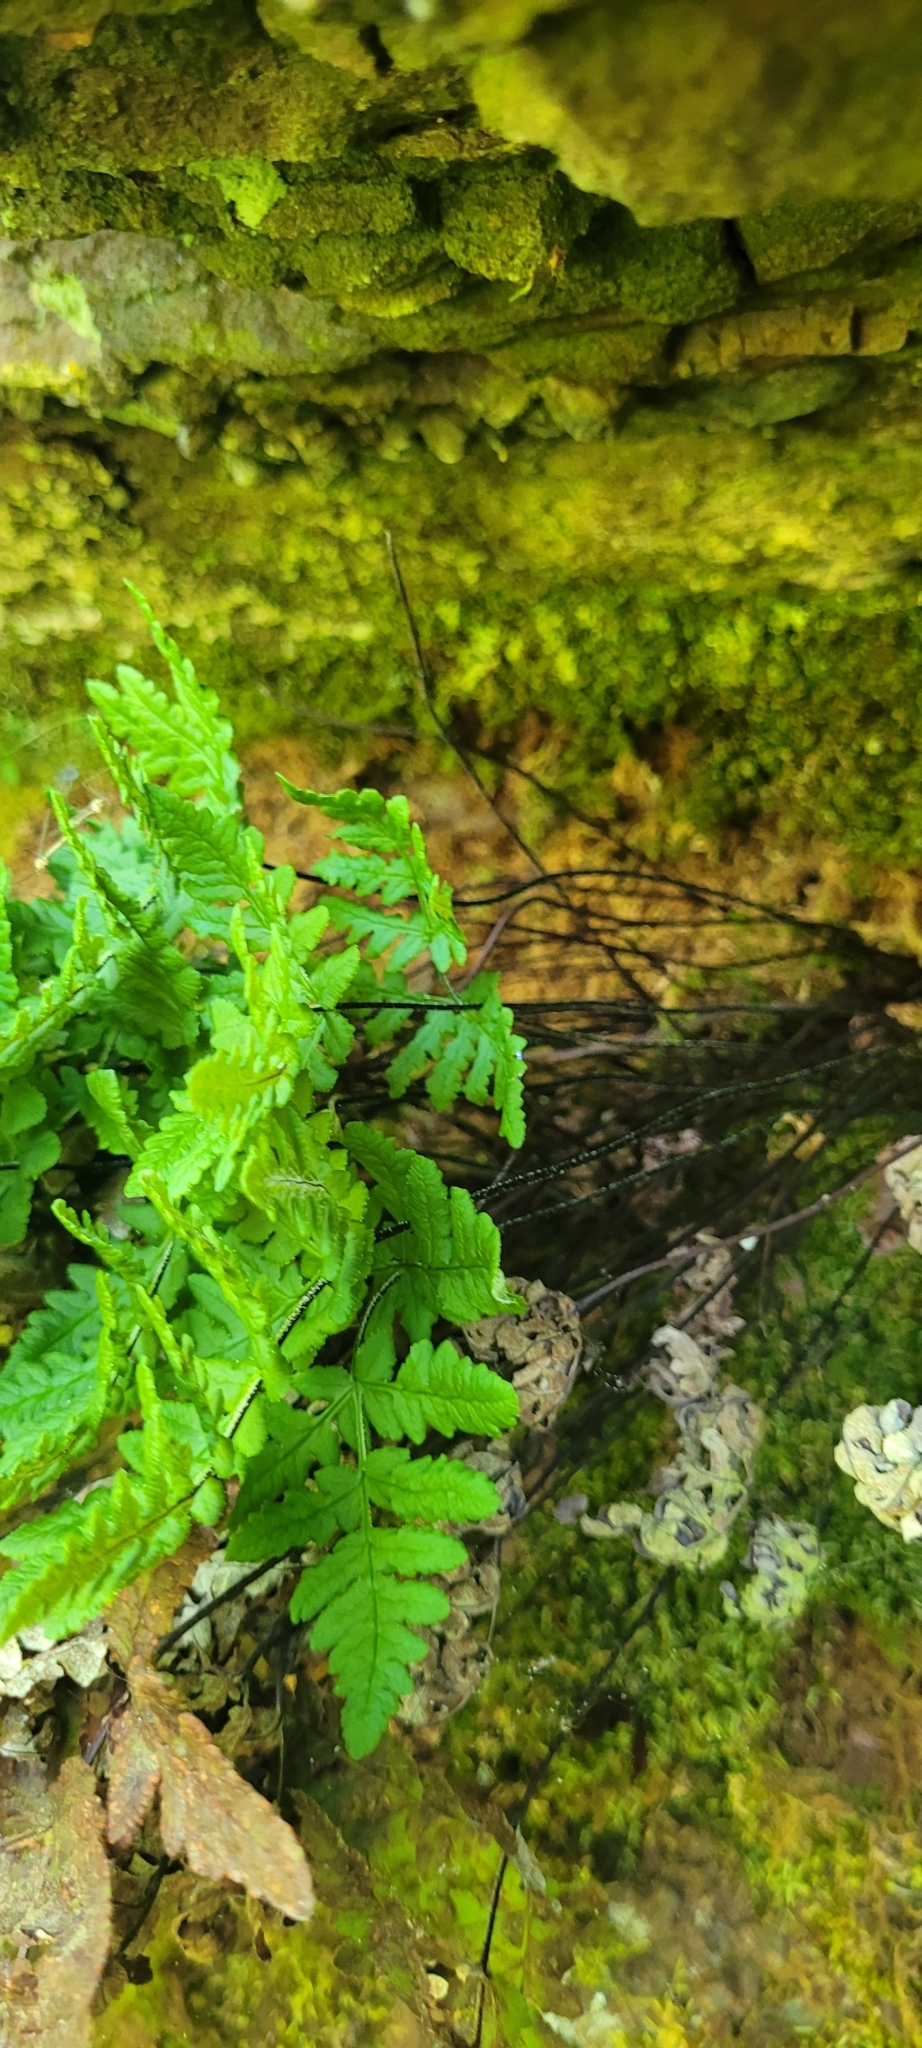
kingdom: Plantae
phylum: Tracheophyta
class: Polypodiopsida
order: Polypodiales
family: Pteridaceae
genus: Pentagramma
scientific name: Pentagramma triangularis
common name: Gold fern
